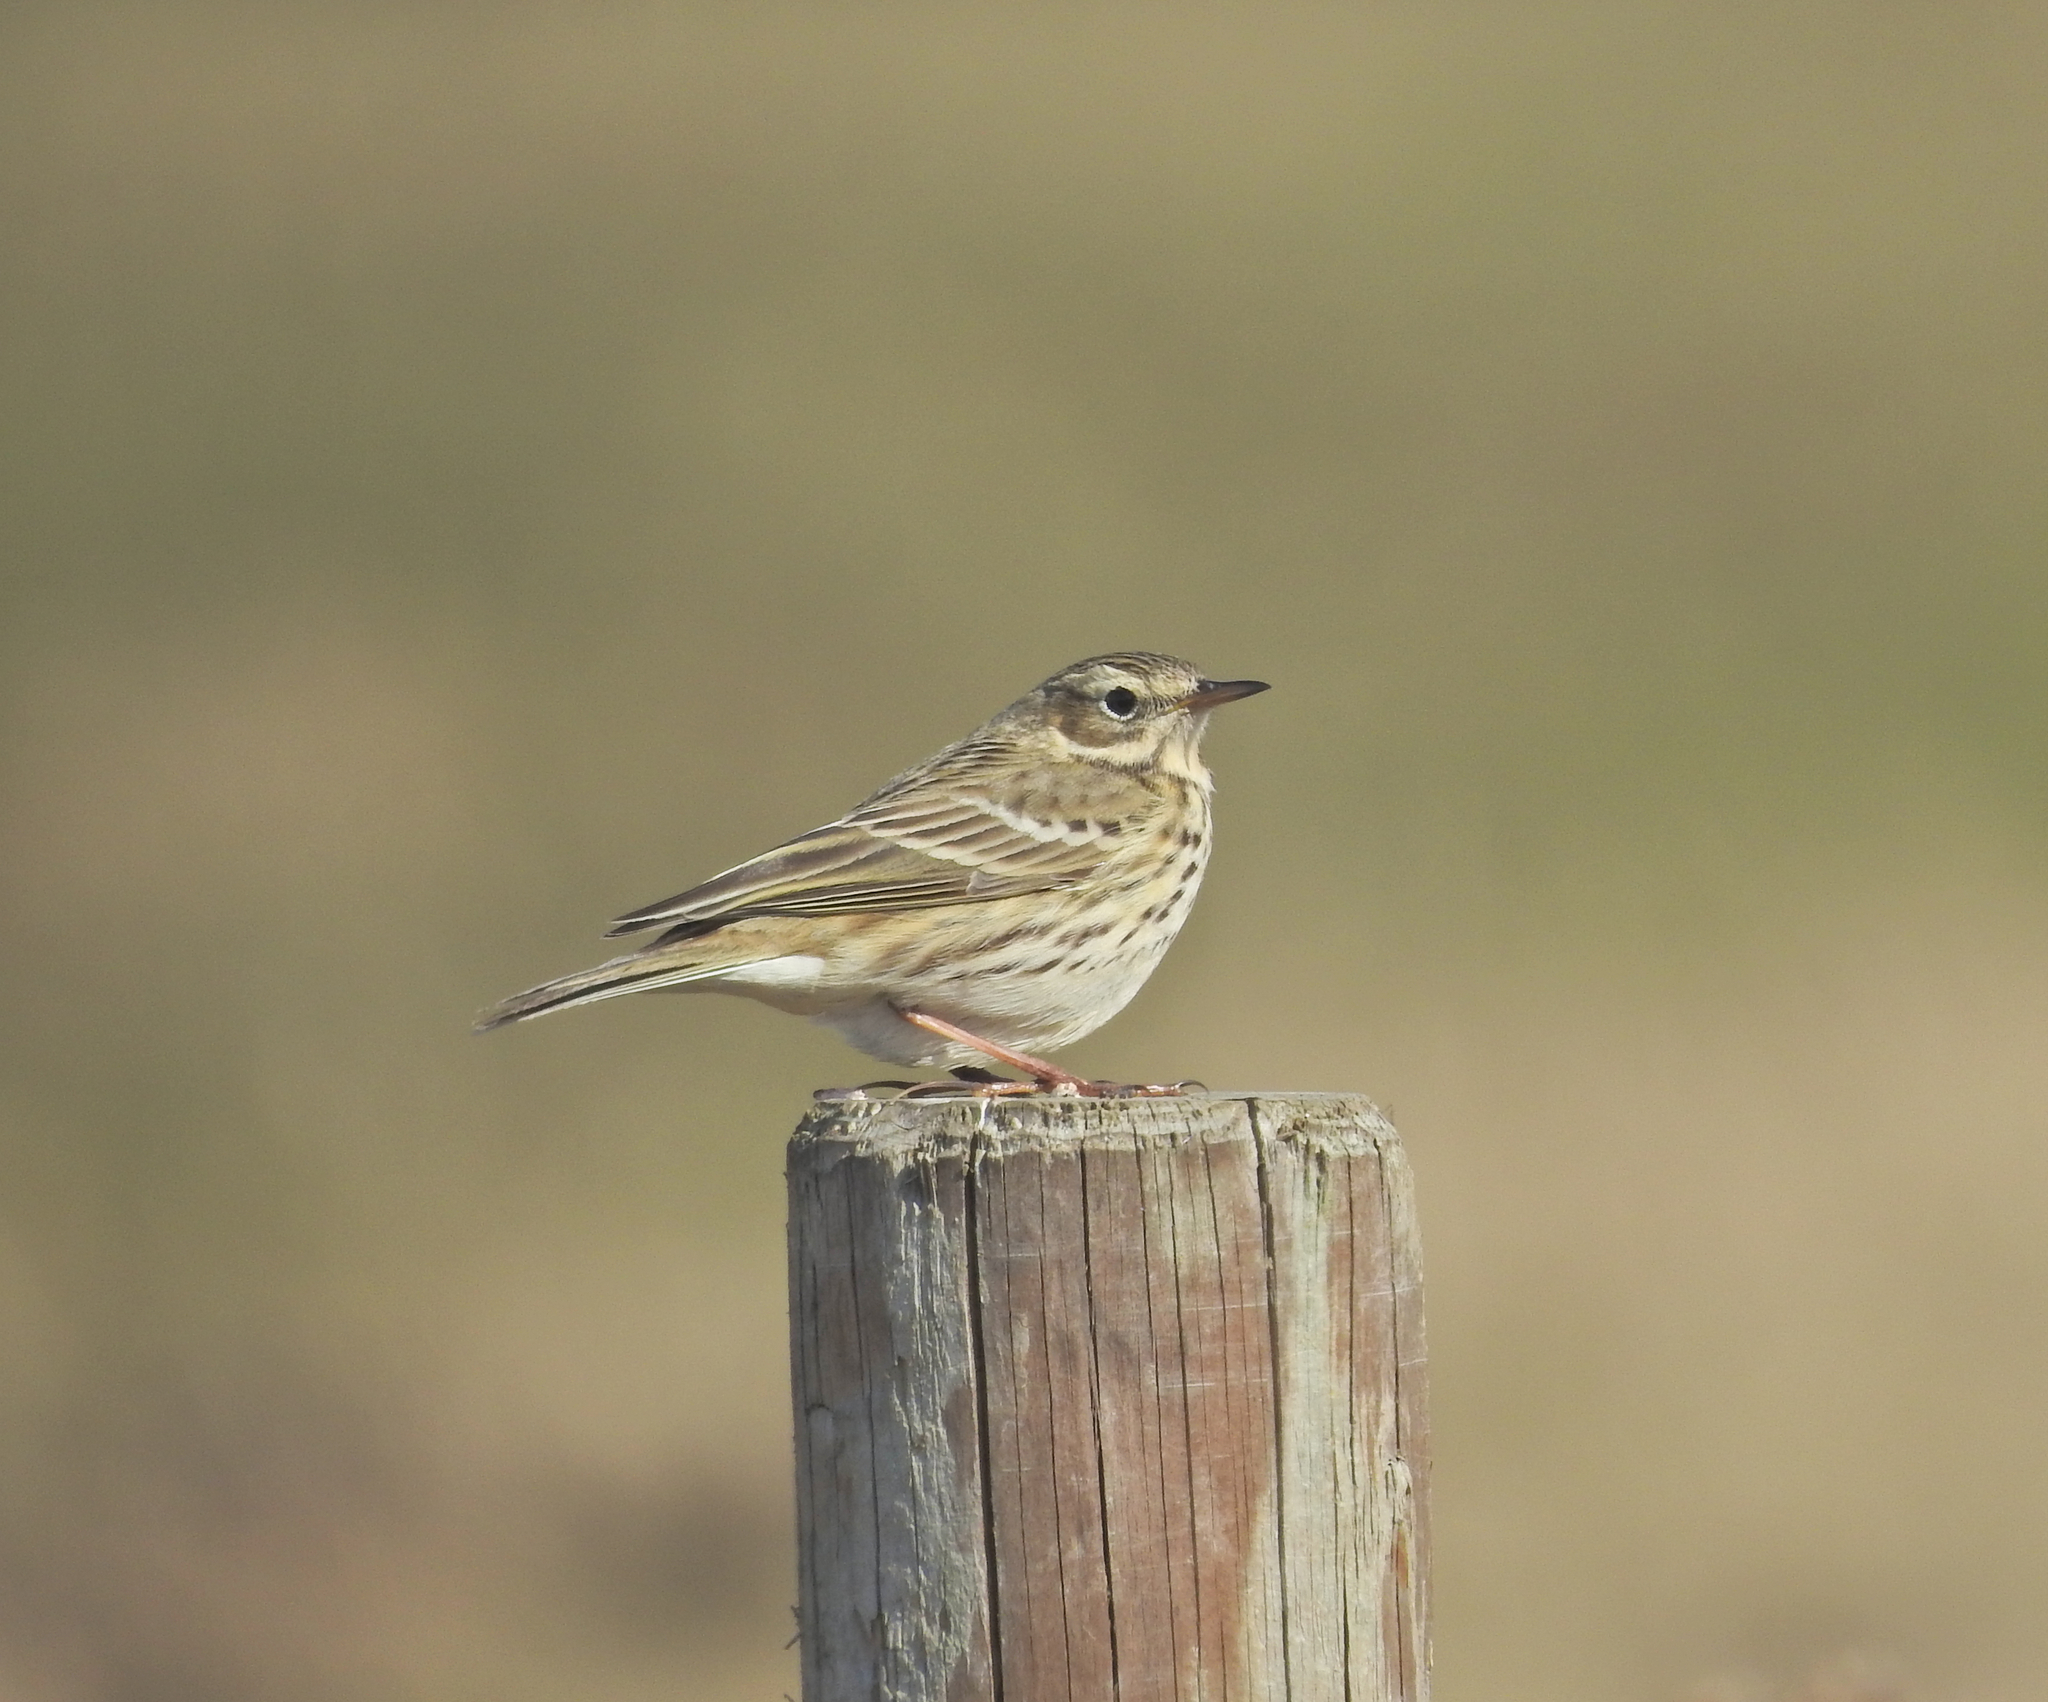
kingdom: Animalia
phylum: Chordata
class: Aves
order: Passeriformes
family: Motacillidae
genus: Anthus
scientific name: Anthus pratensis
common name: Meadow pipit
